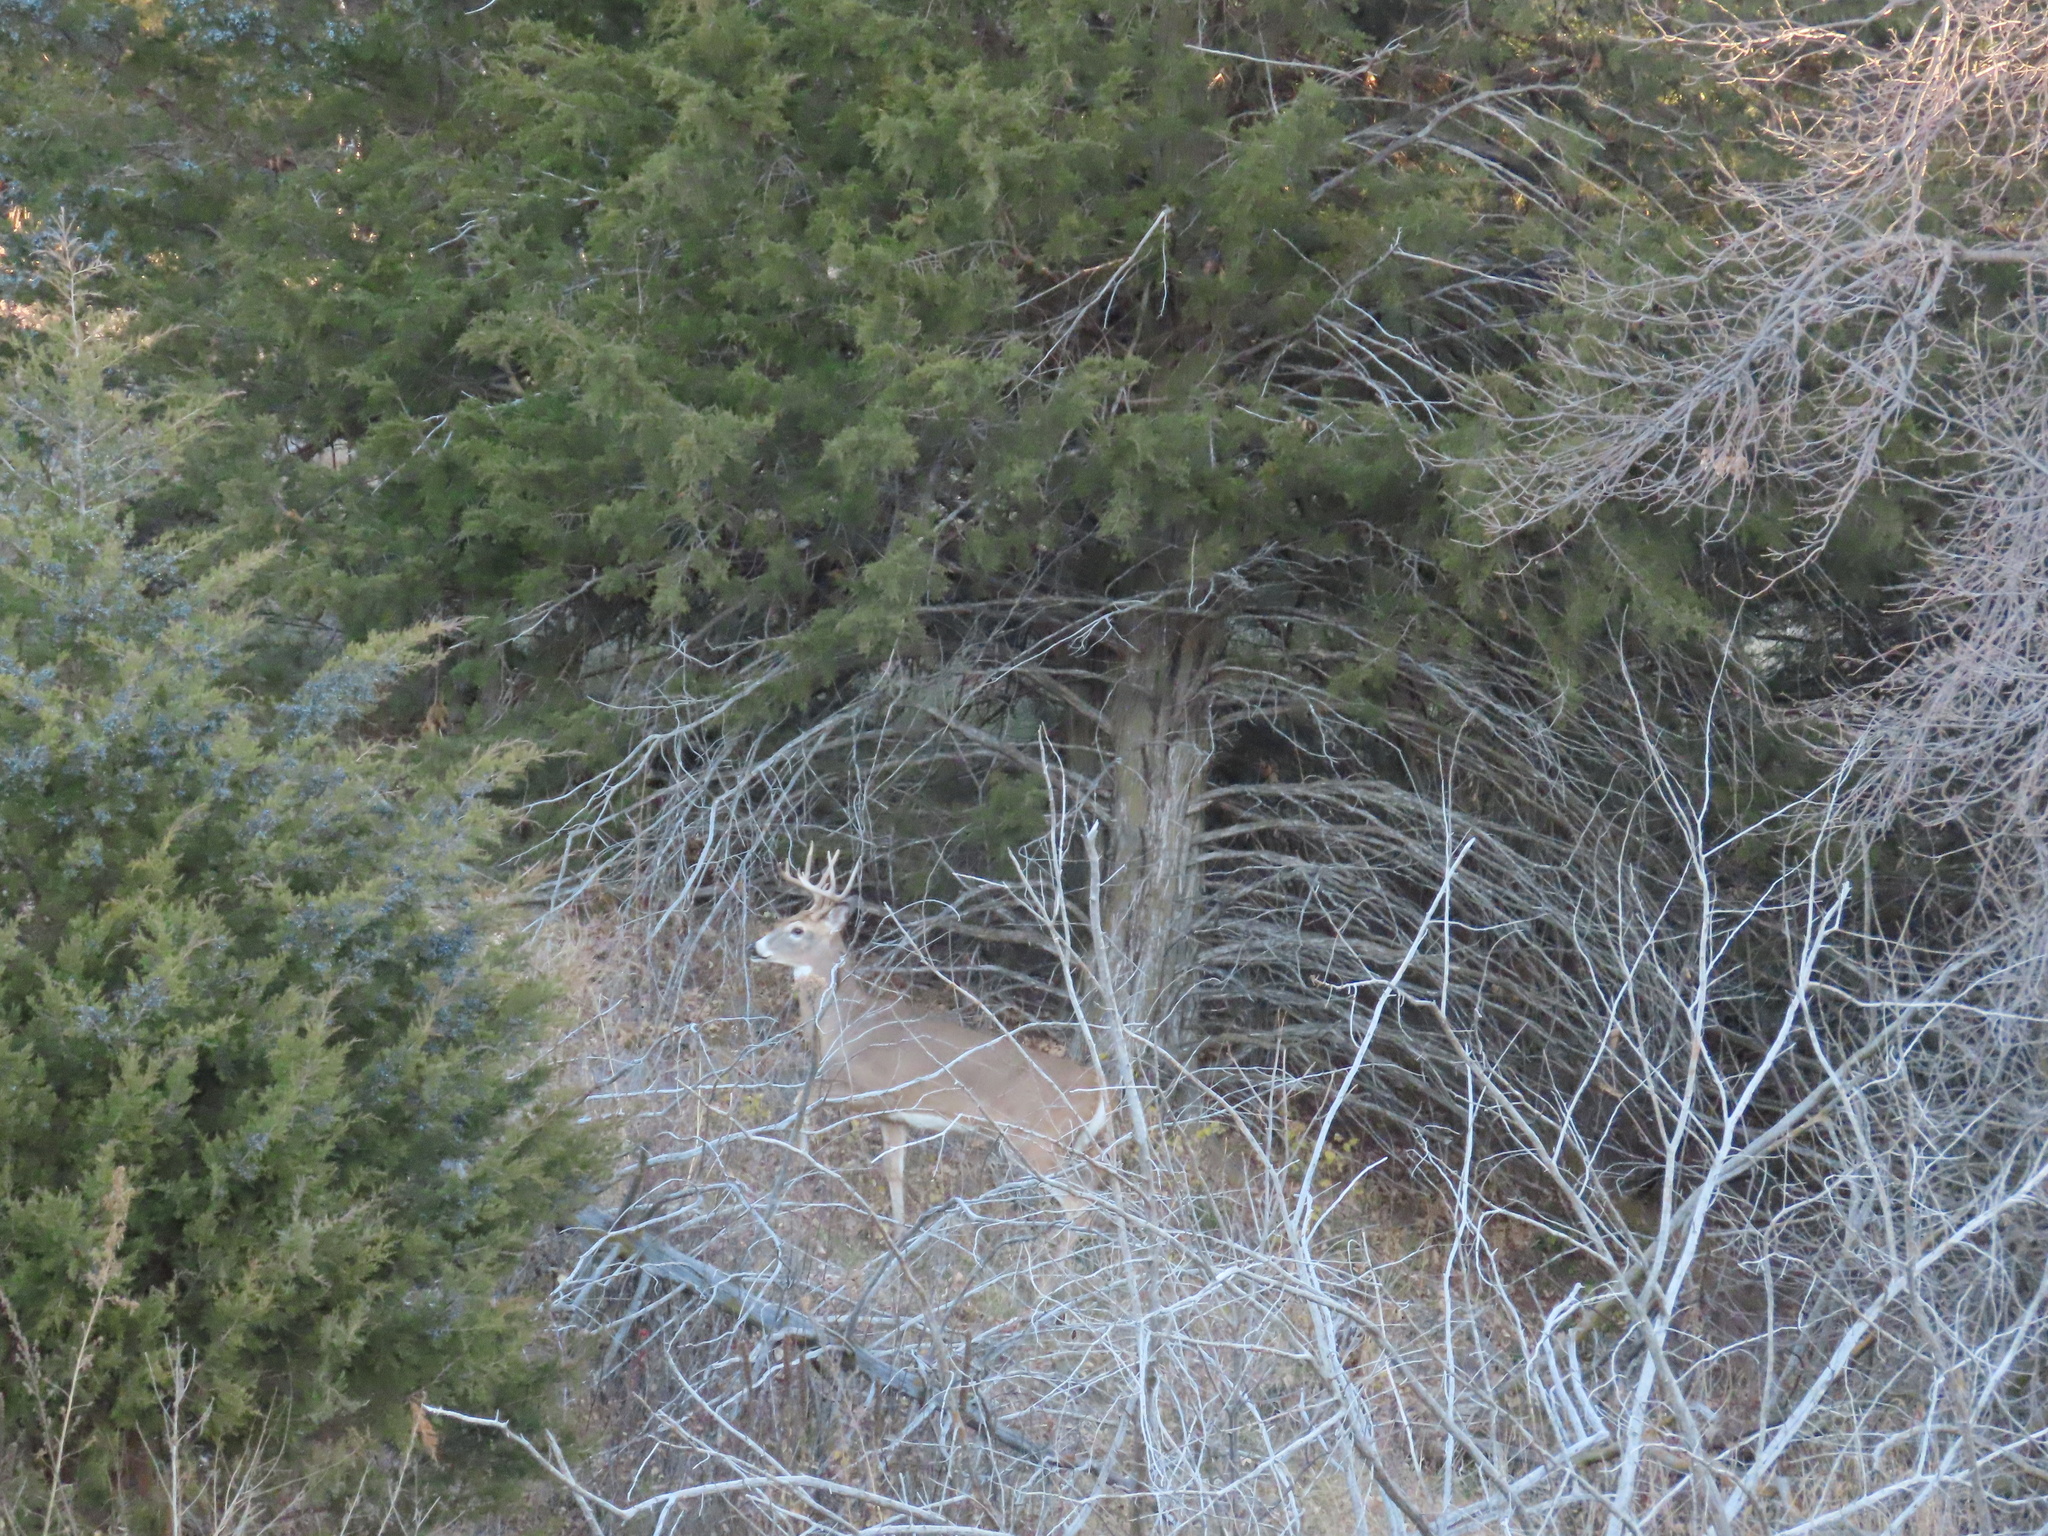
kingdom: Animalia
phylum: Chordata
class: Mammalia
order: Artiodactyla
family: Cervidae
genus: Odocoileus
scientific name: Odocoileus virginianus
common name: White-tailed deer
